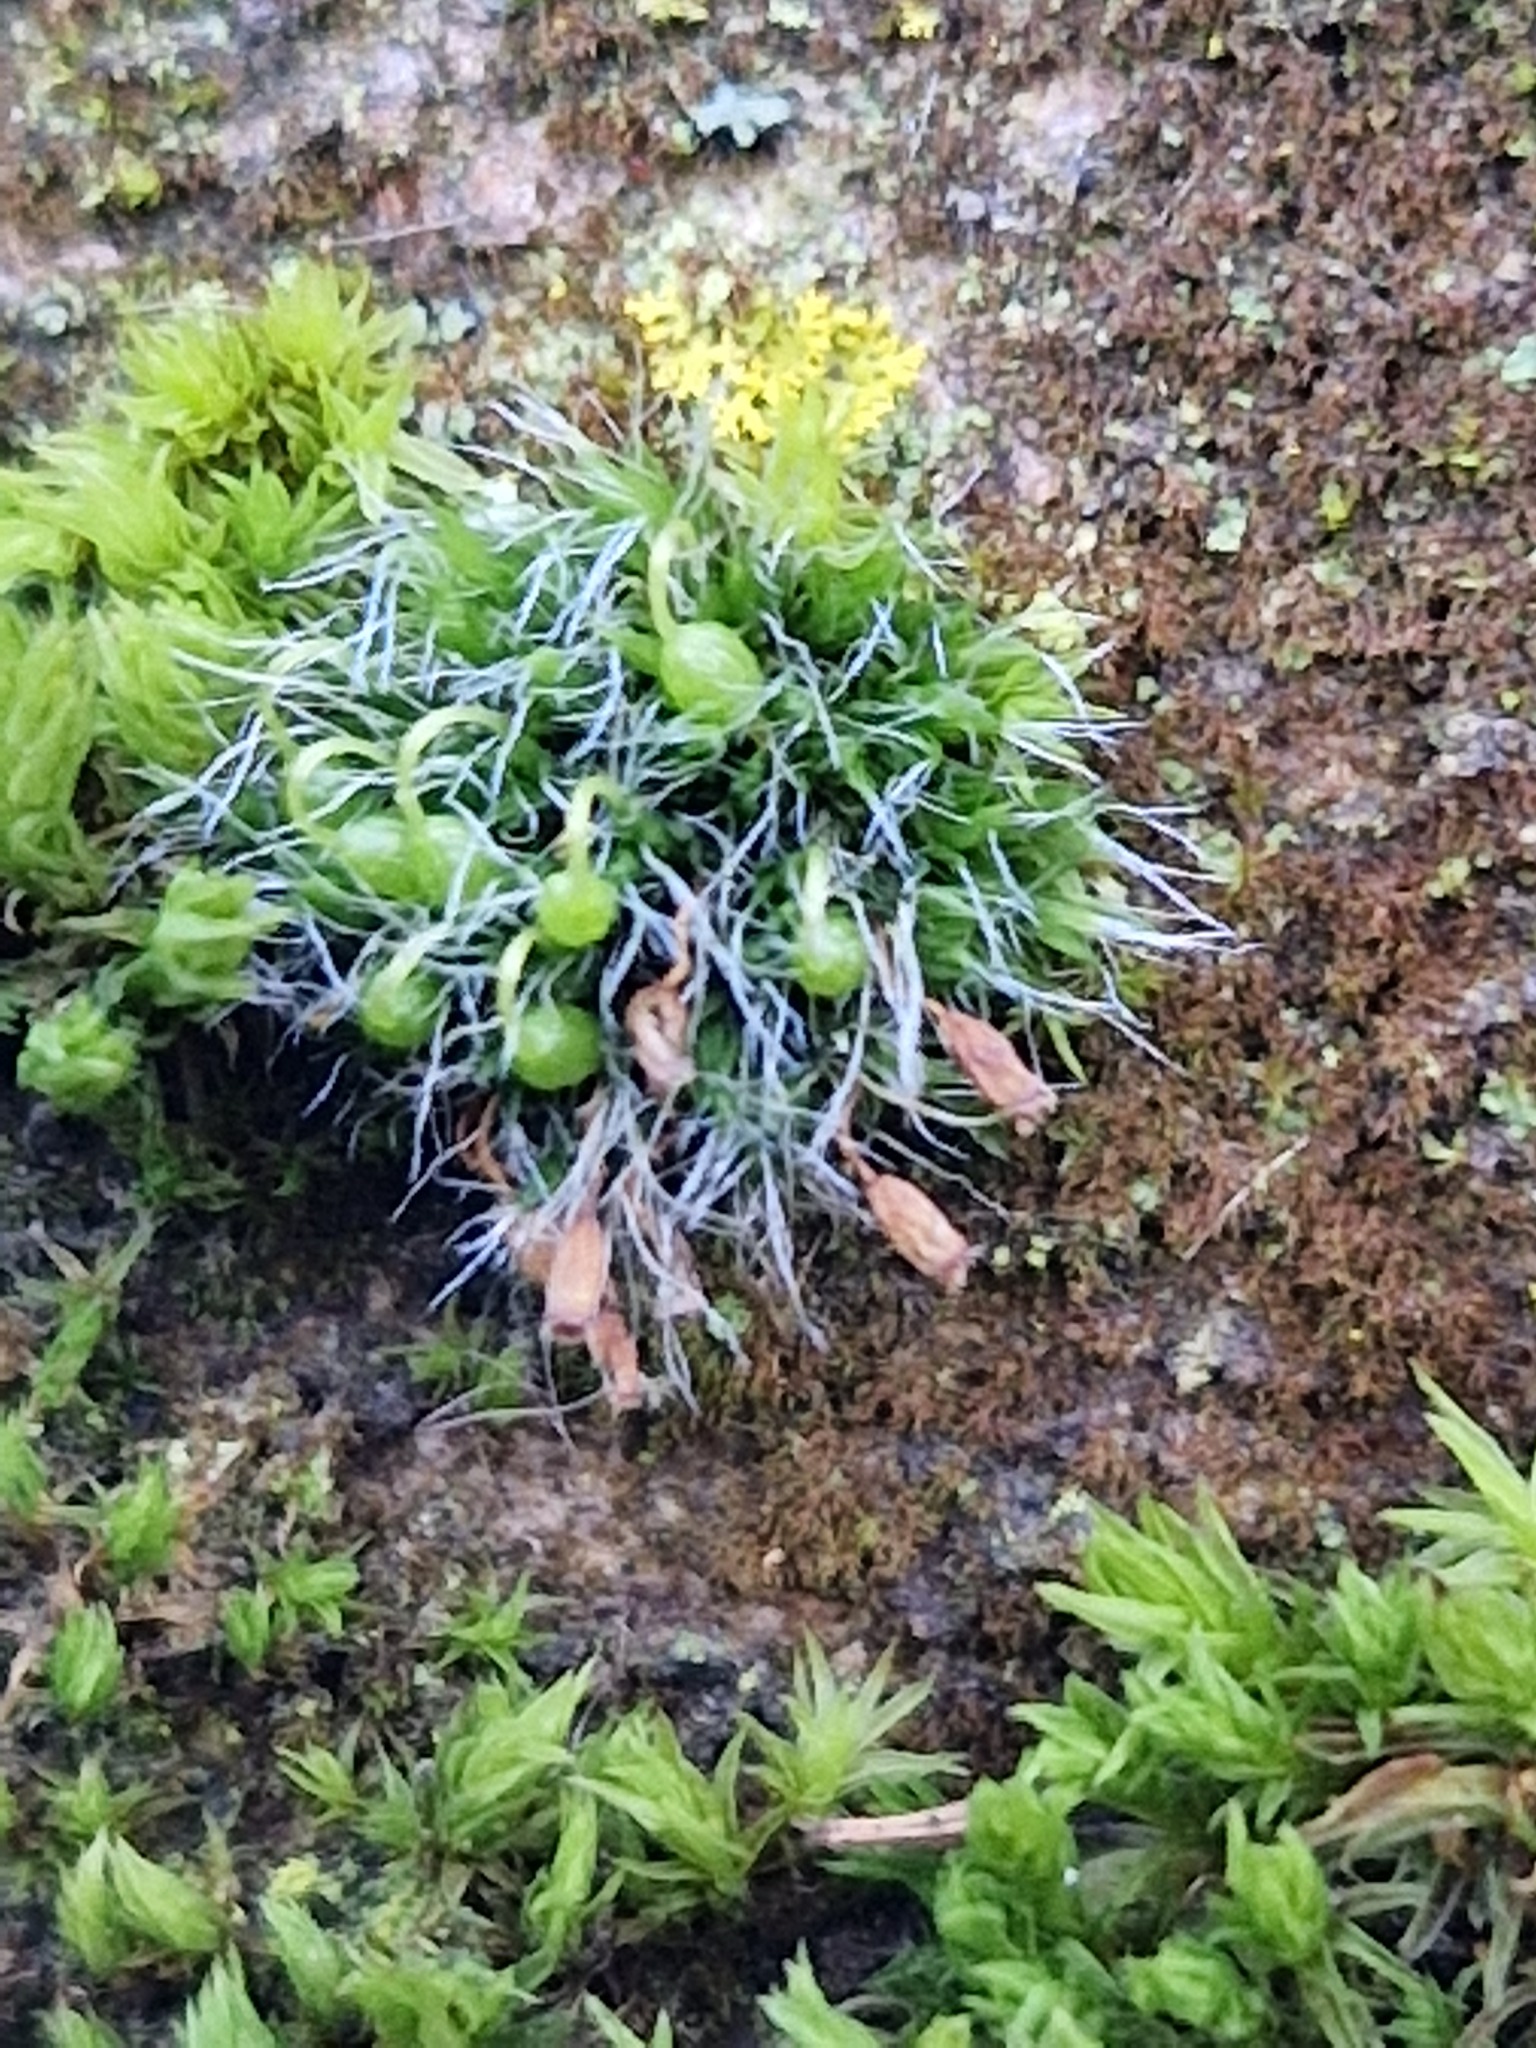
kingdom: Plantae
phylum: Bryophyta
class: Bryopsida
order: Grimmiales
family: Grimmiaceae
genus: Grimmia
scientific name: Grimmia pulvinata
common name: Grey-cushioned grimmia
